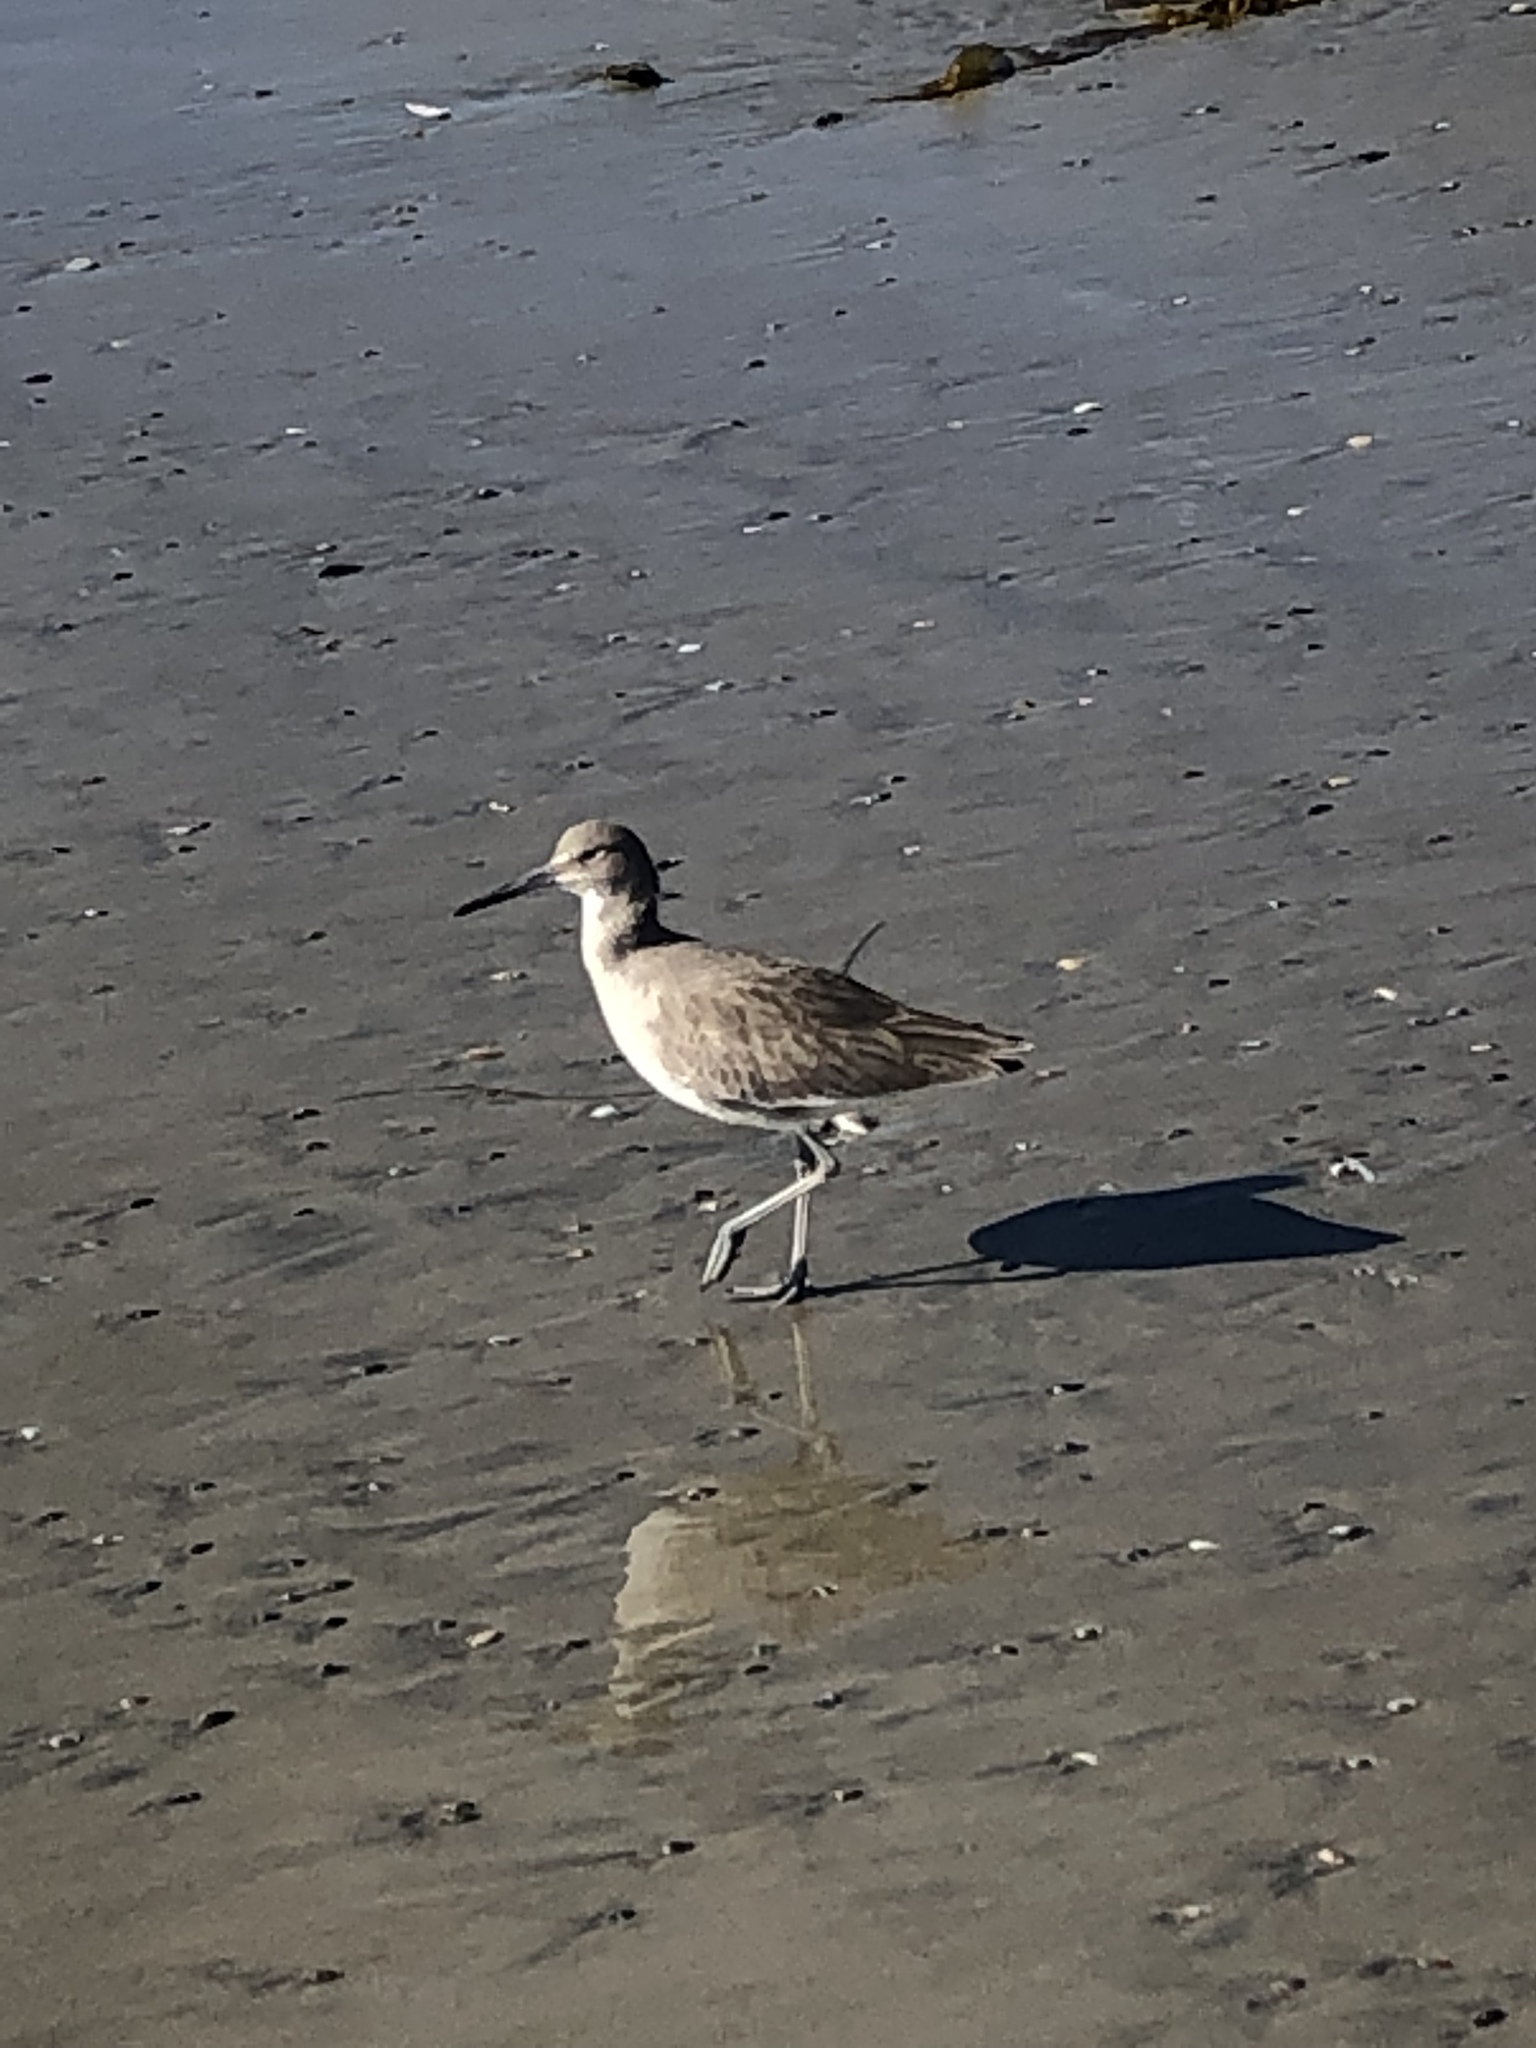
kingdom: Animalia
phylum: Chordata
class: Aves
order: Charadriiformes
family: Scolopacidae
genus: Tringa
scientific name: Tringa semipalmata
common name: Willet
